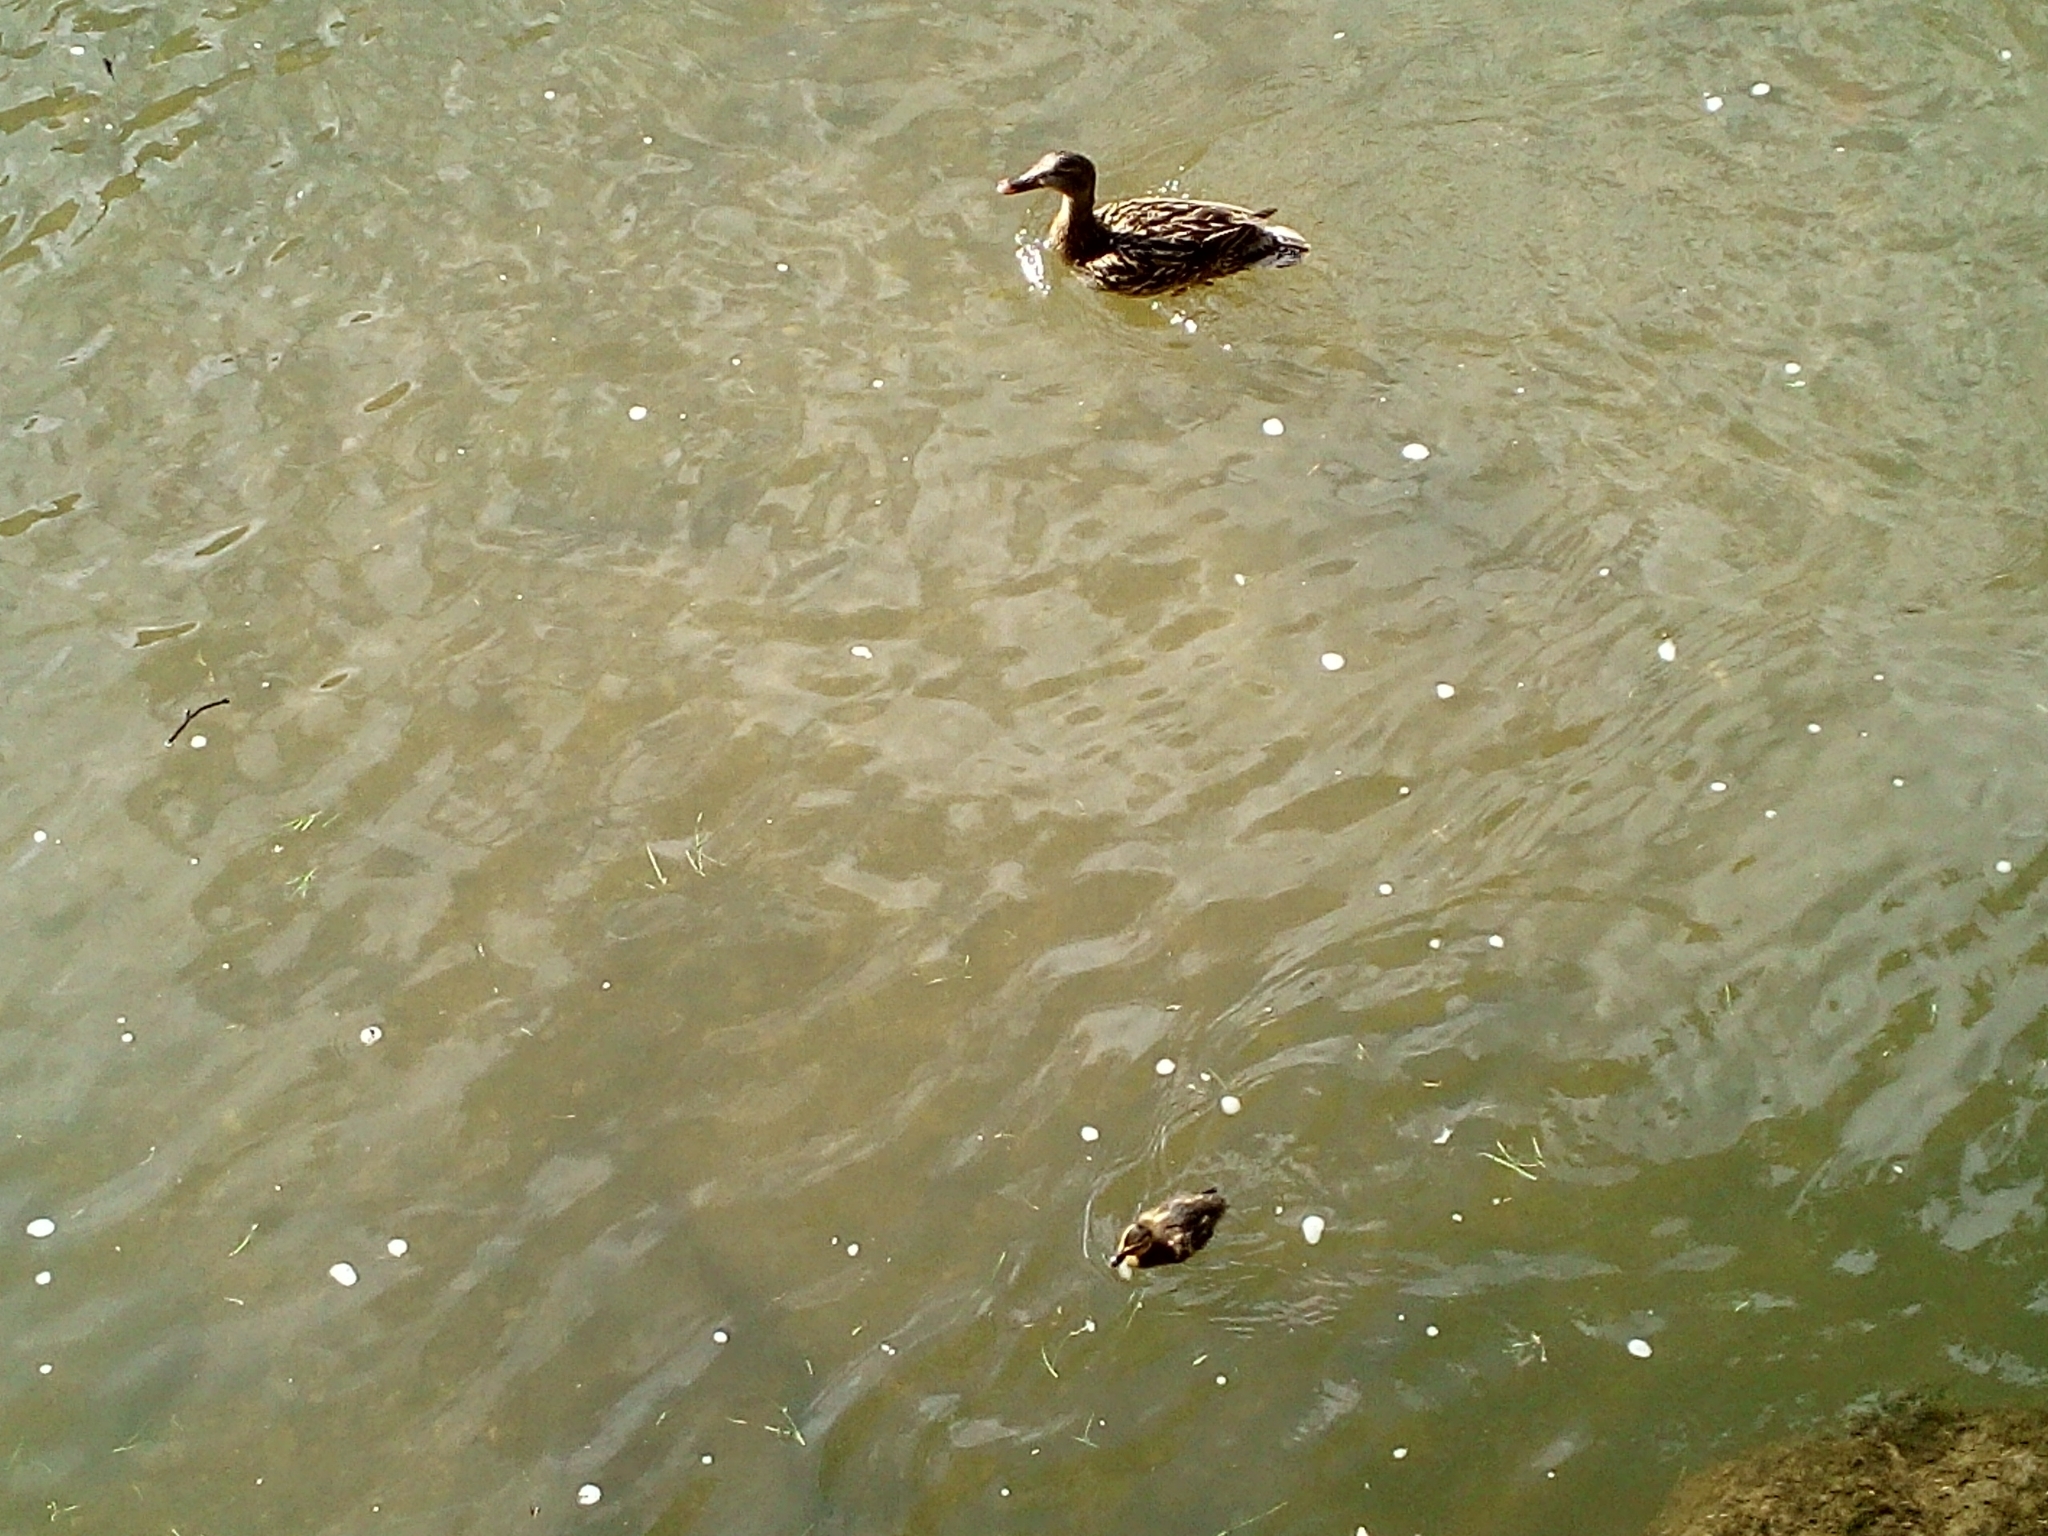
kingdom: Animalia
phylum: Chordata
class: Aves
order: Anseriformes
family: Anatidae
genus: Anas
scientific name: Anas platyrhynchos
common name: Mallard
